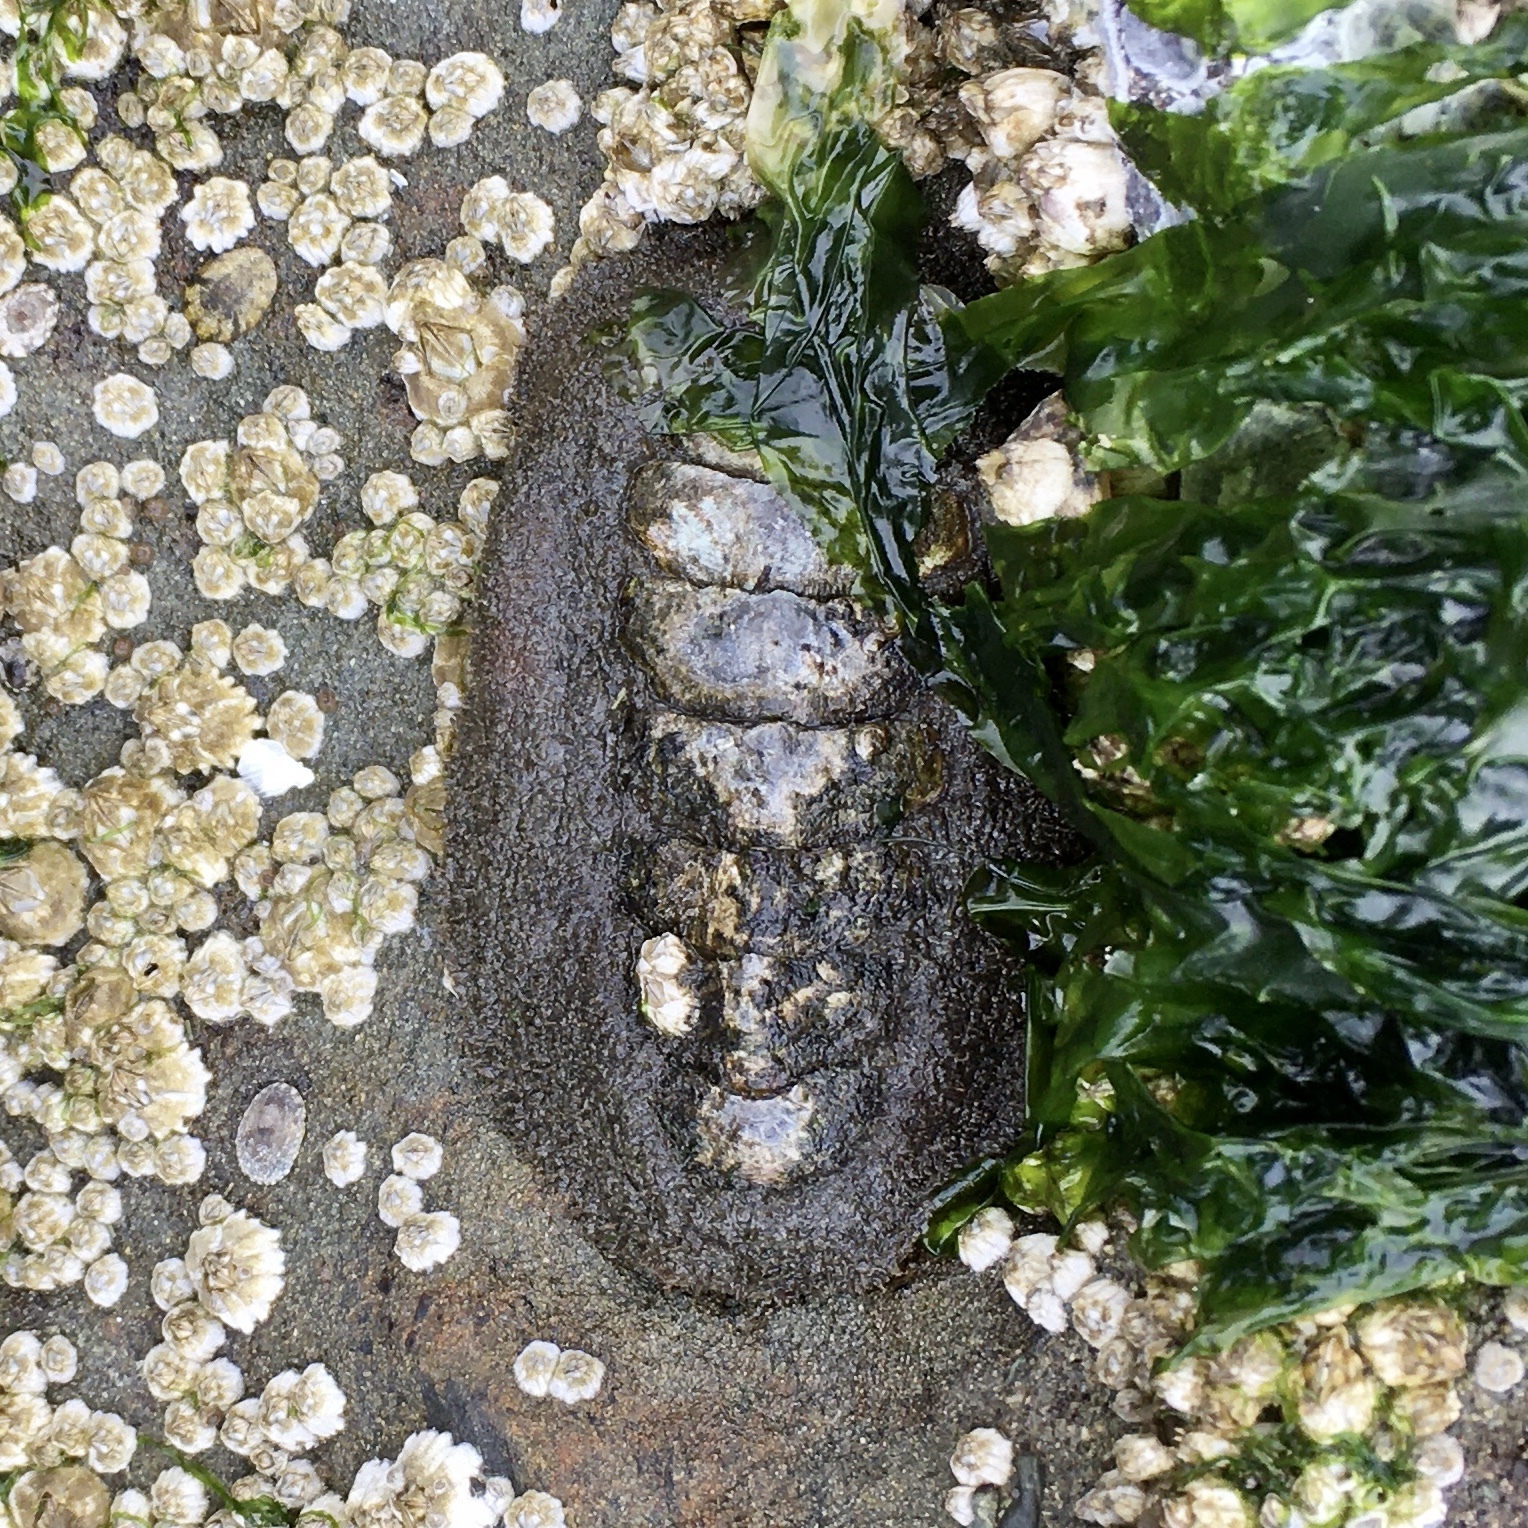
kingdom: Animalia
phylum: Mollusca
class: Polyplacophora
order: Chitonida
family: Mopaliidae
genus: Mopalia
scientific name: Mopalia muscosa
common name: Mossy chiton
